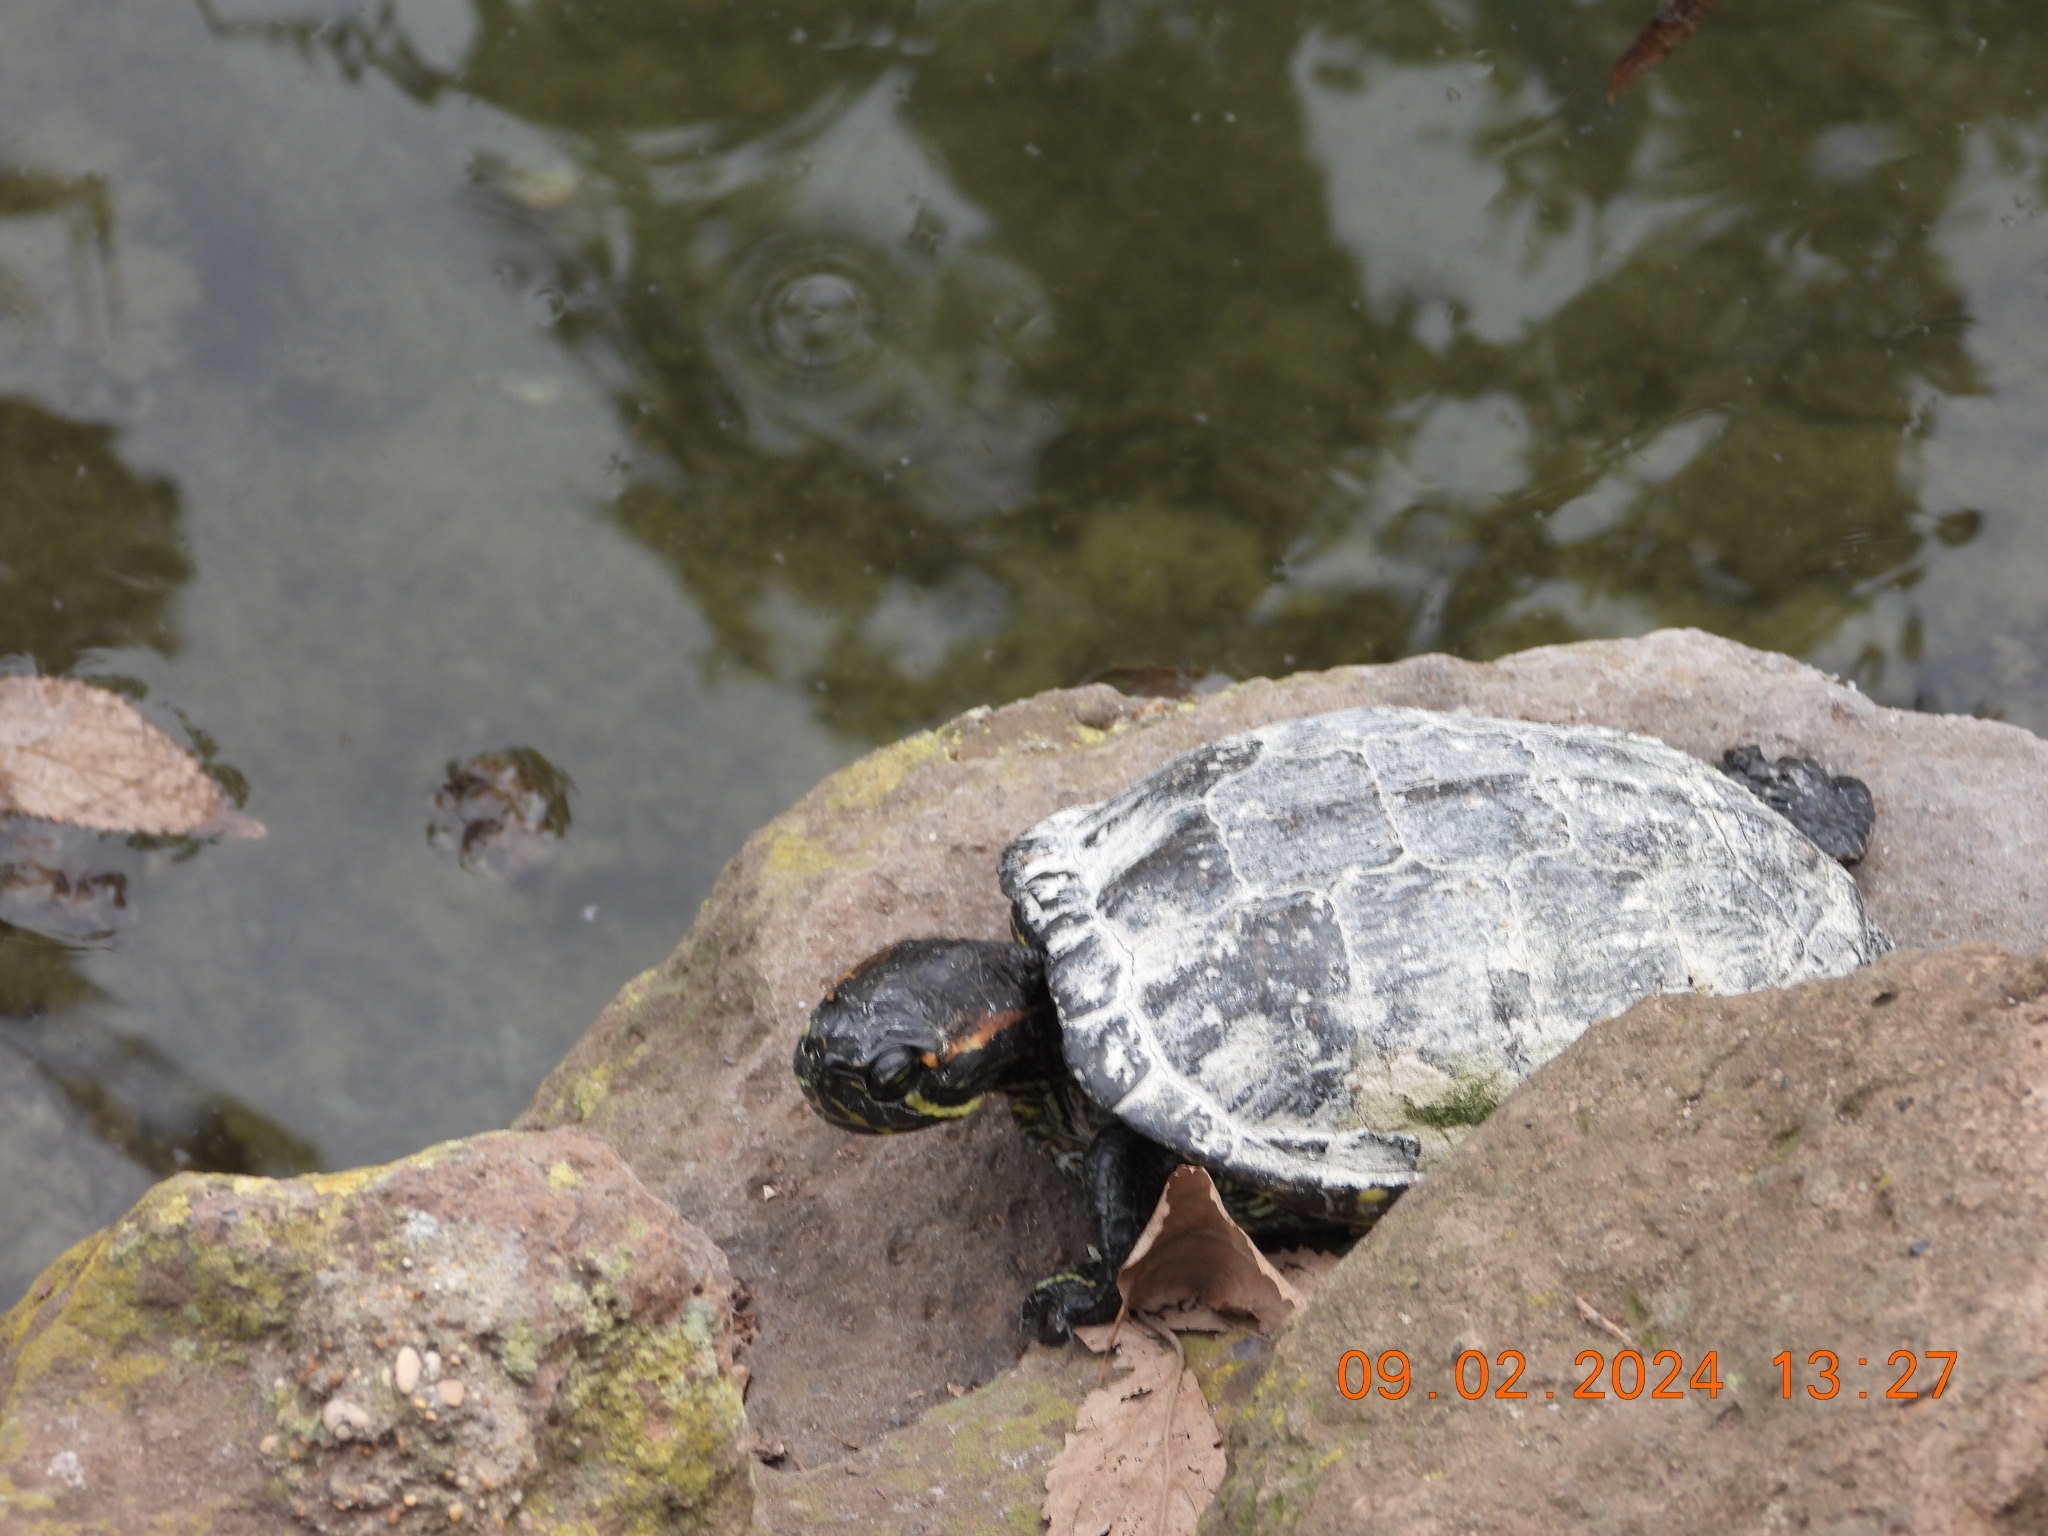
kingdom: Animalia
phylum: Chordata
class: Testudines
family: Emydidae
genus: Trachemys
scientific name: Trachemys scripta
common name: Slider
